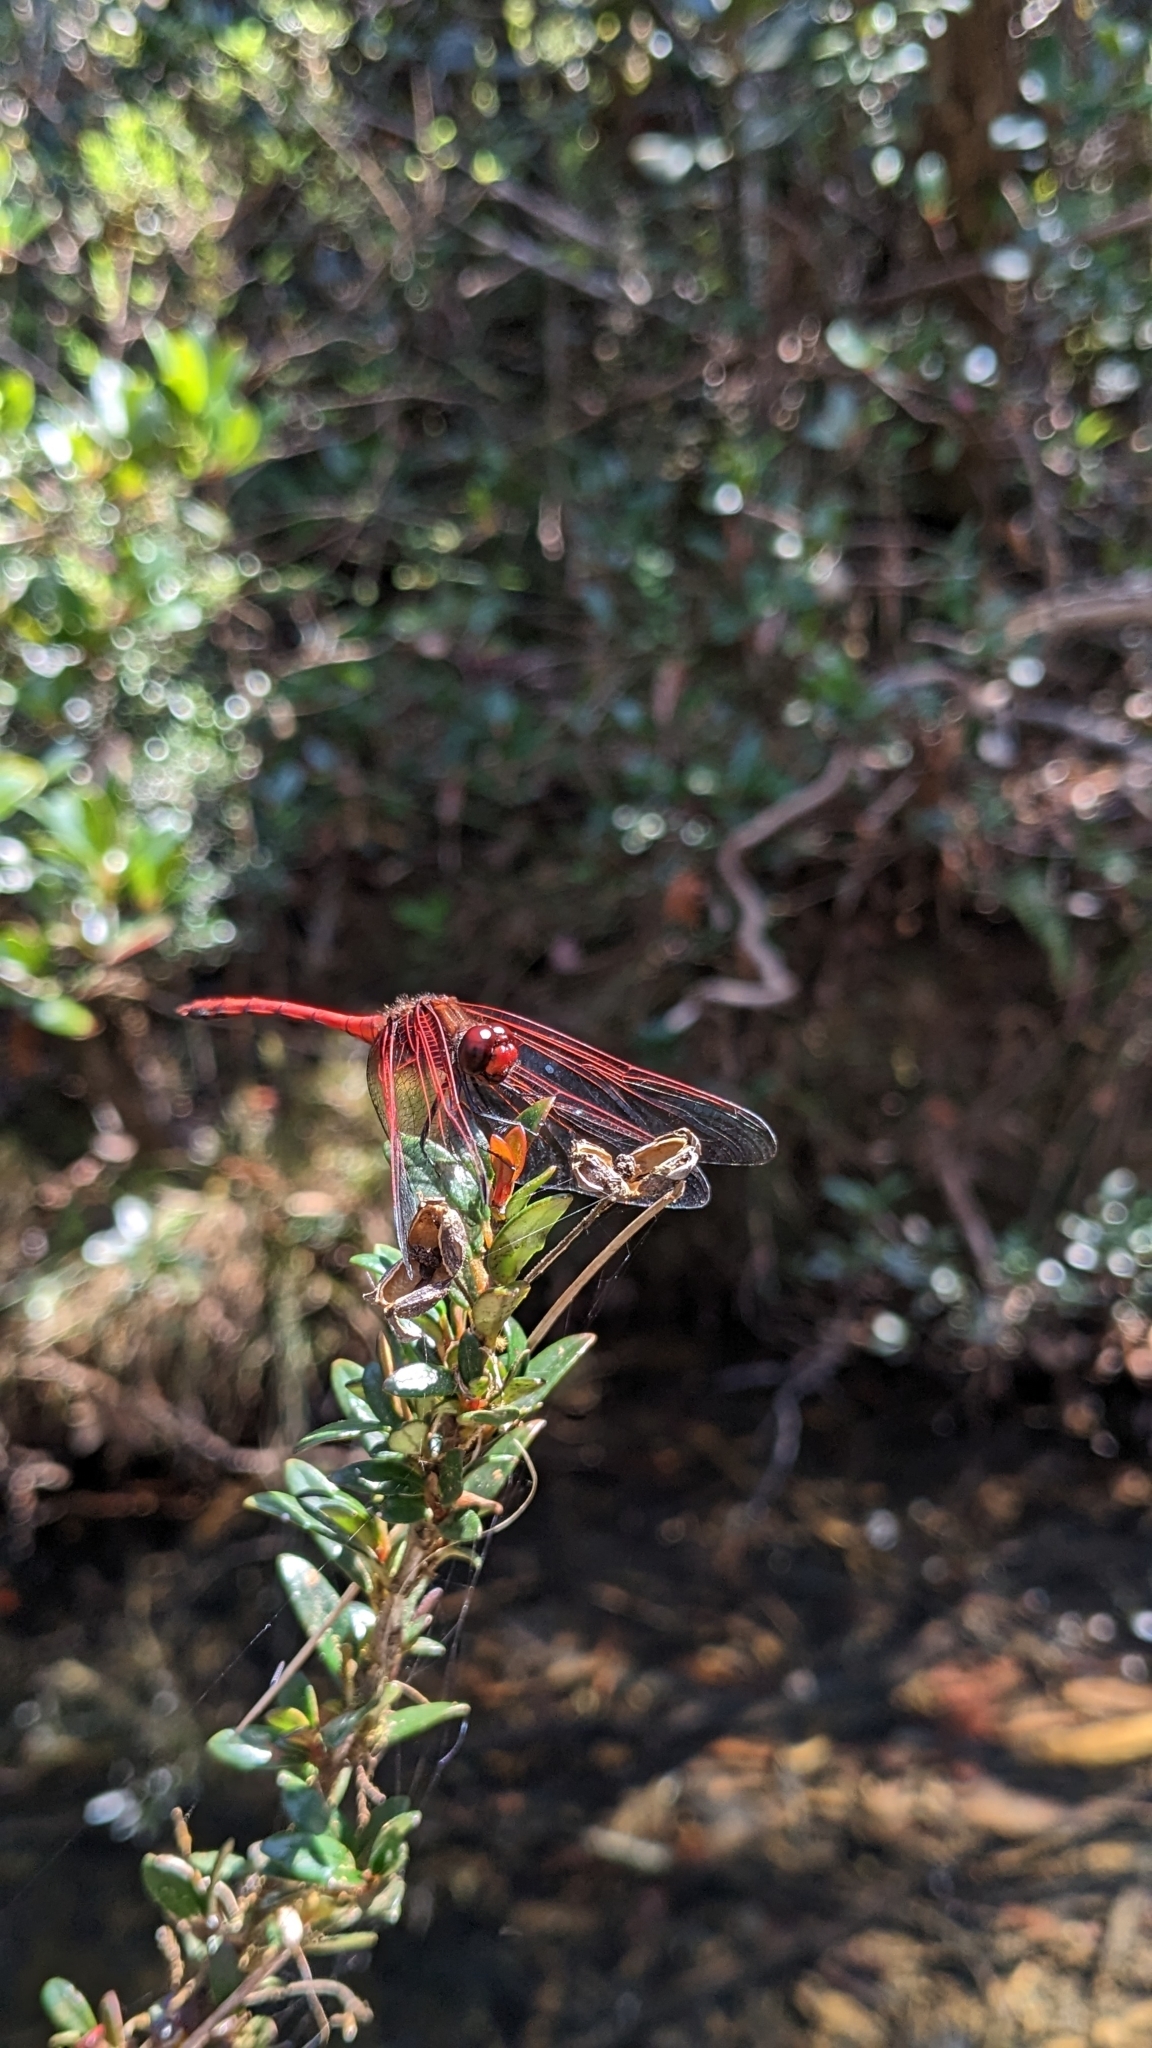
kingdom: Animalia
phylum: Arthropoda
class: Insecta
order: Odonata
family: Libellulidae
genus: Dythemis
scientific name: Dythemis rufinervis
